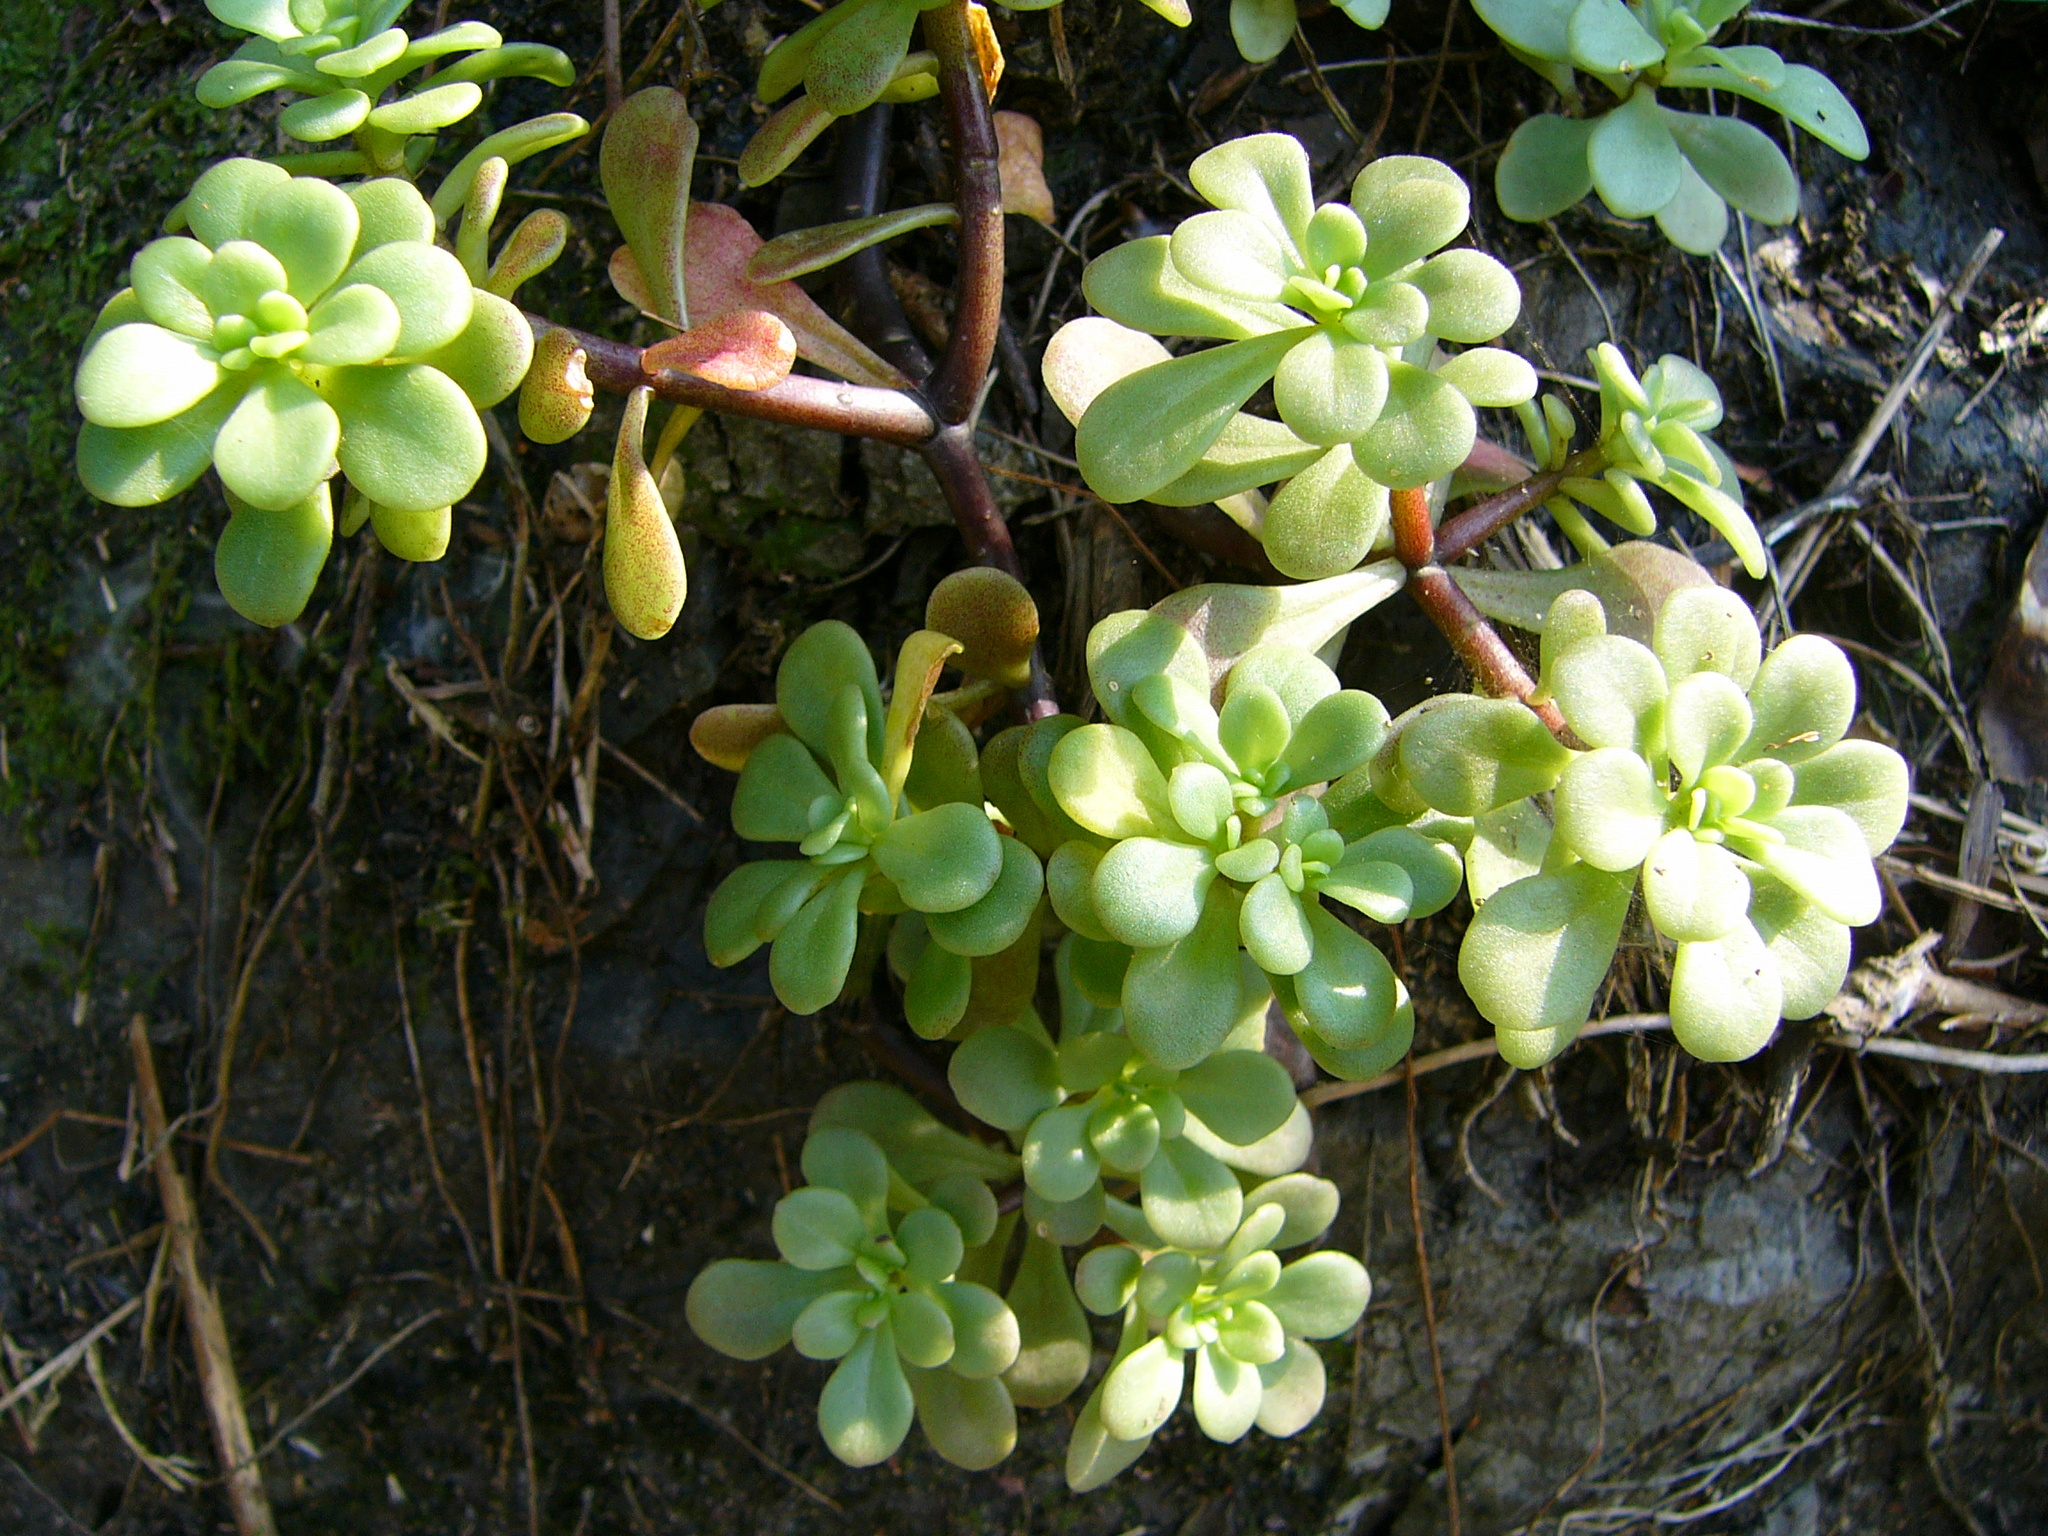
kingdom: Plantae
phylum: Tracheophyta
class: Magnoliopsida
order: Saxifragales
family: Crassulaceae
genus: Sedum
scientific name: Sedum formosanum
